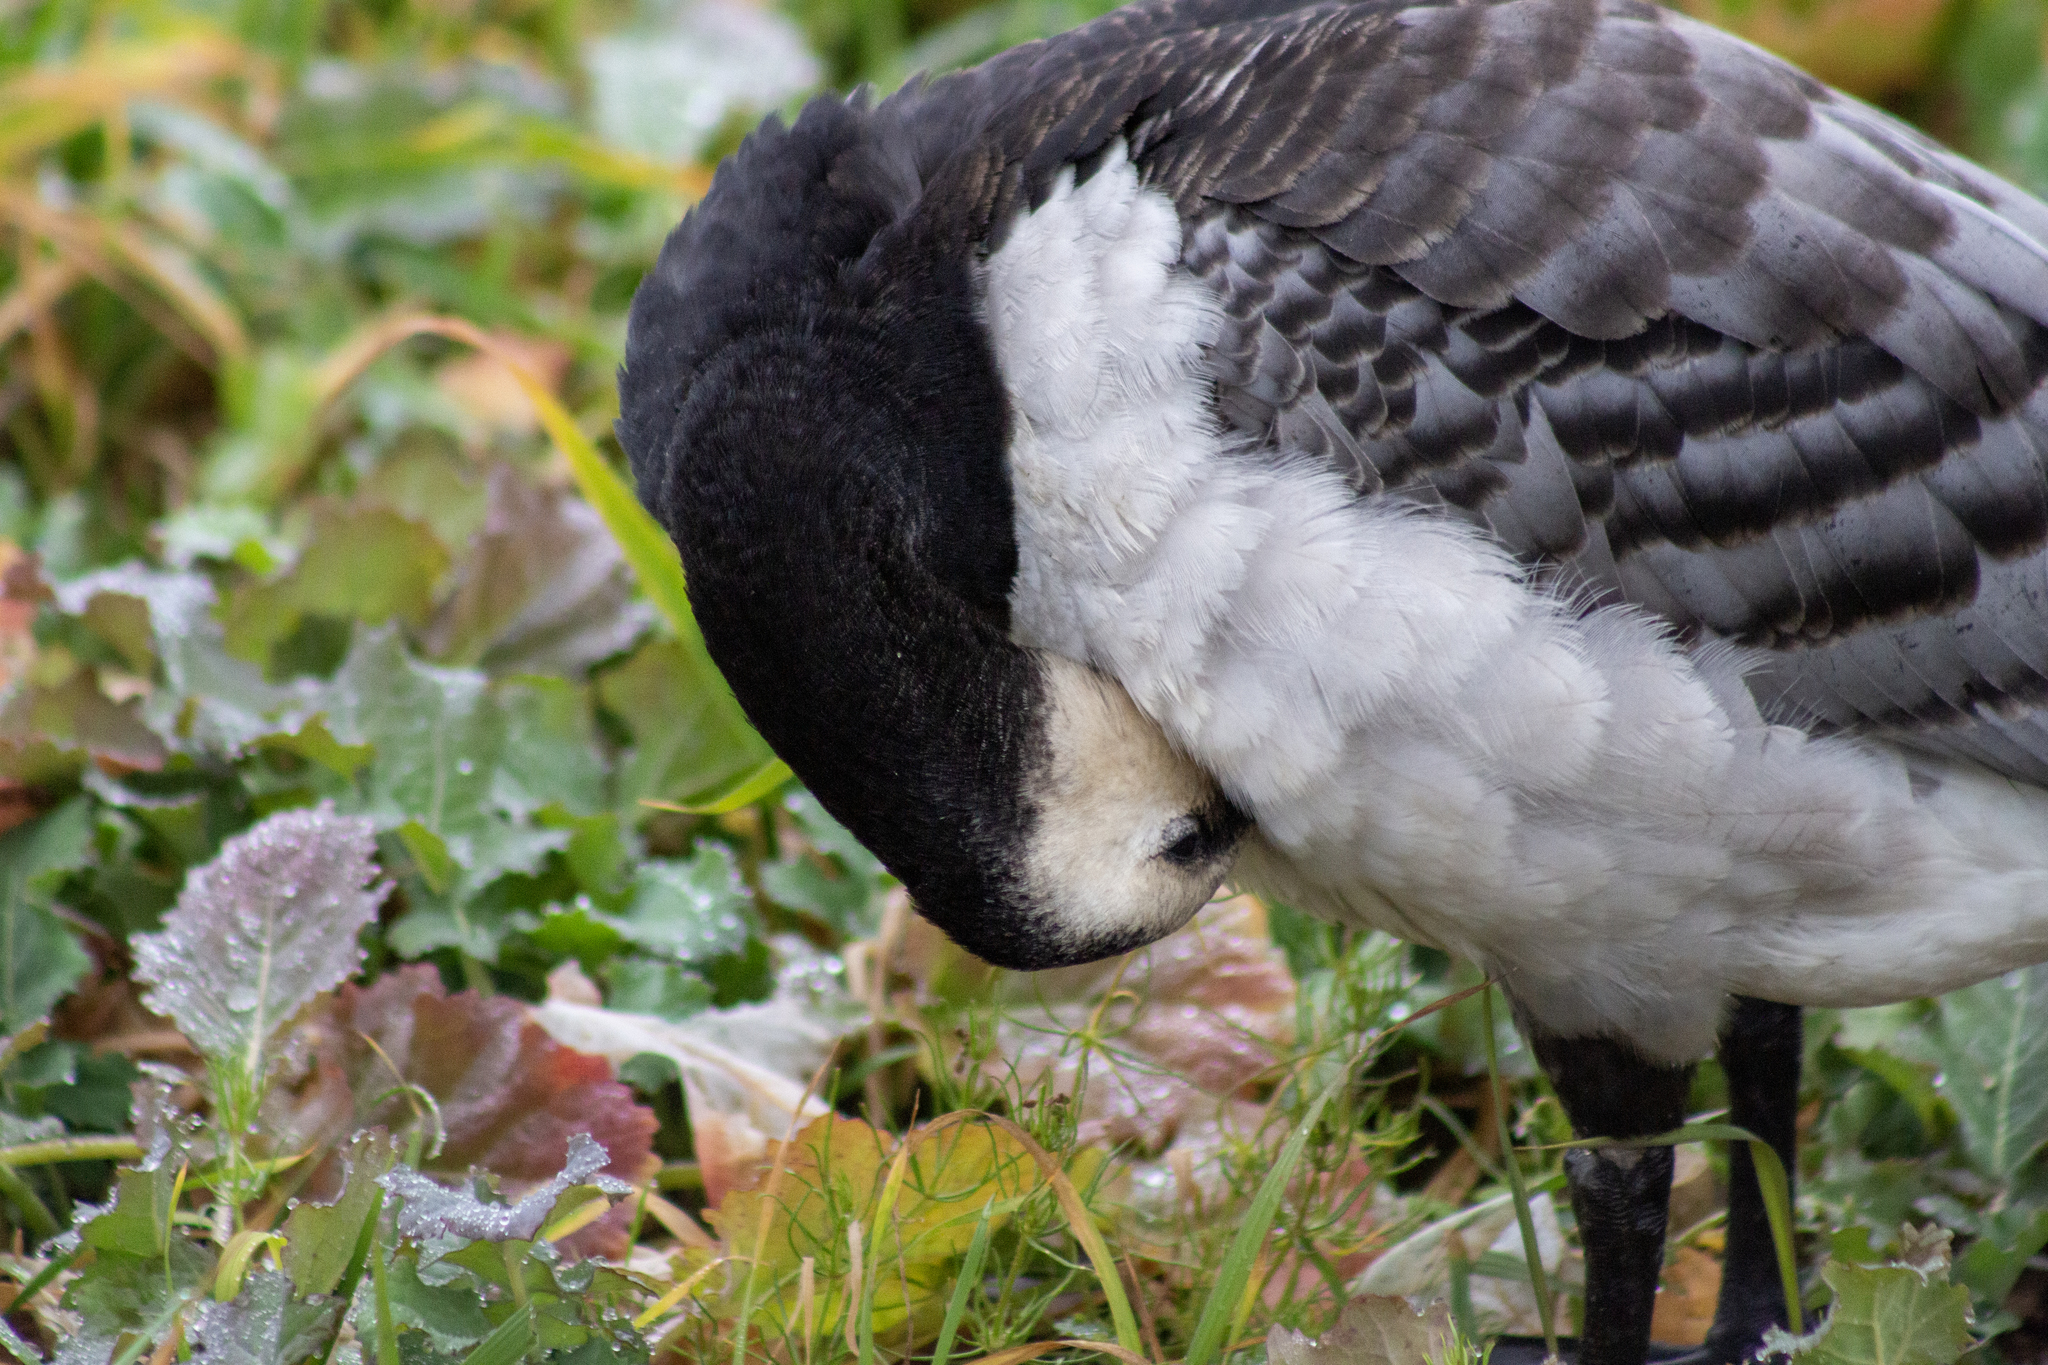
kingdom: Animalia
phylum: Chordata
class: Aves
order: Anseriformes
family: Anatidae
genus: Branta
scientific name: Branta leucopsis
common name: Barnacle goose
